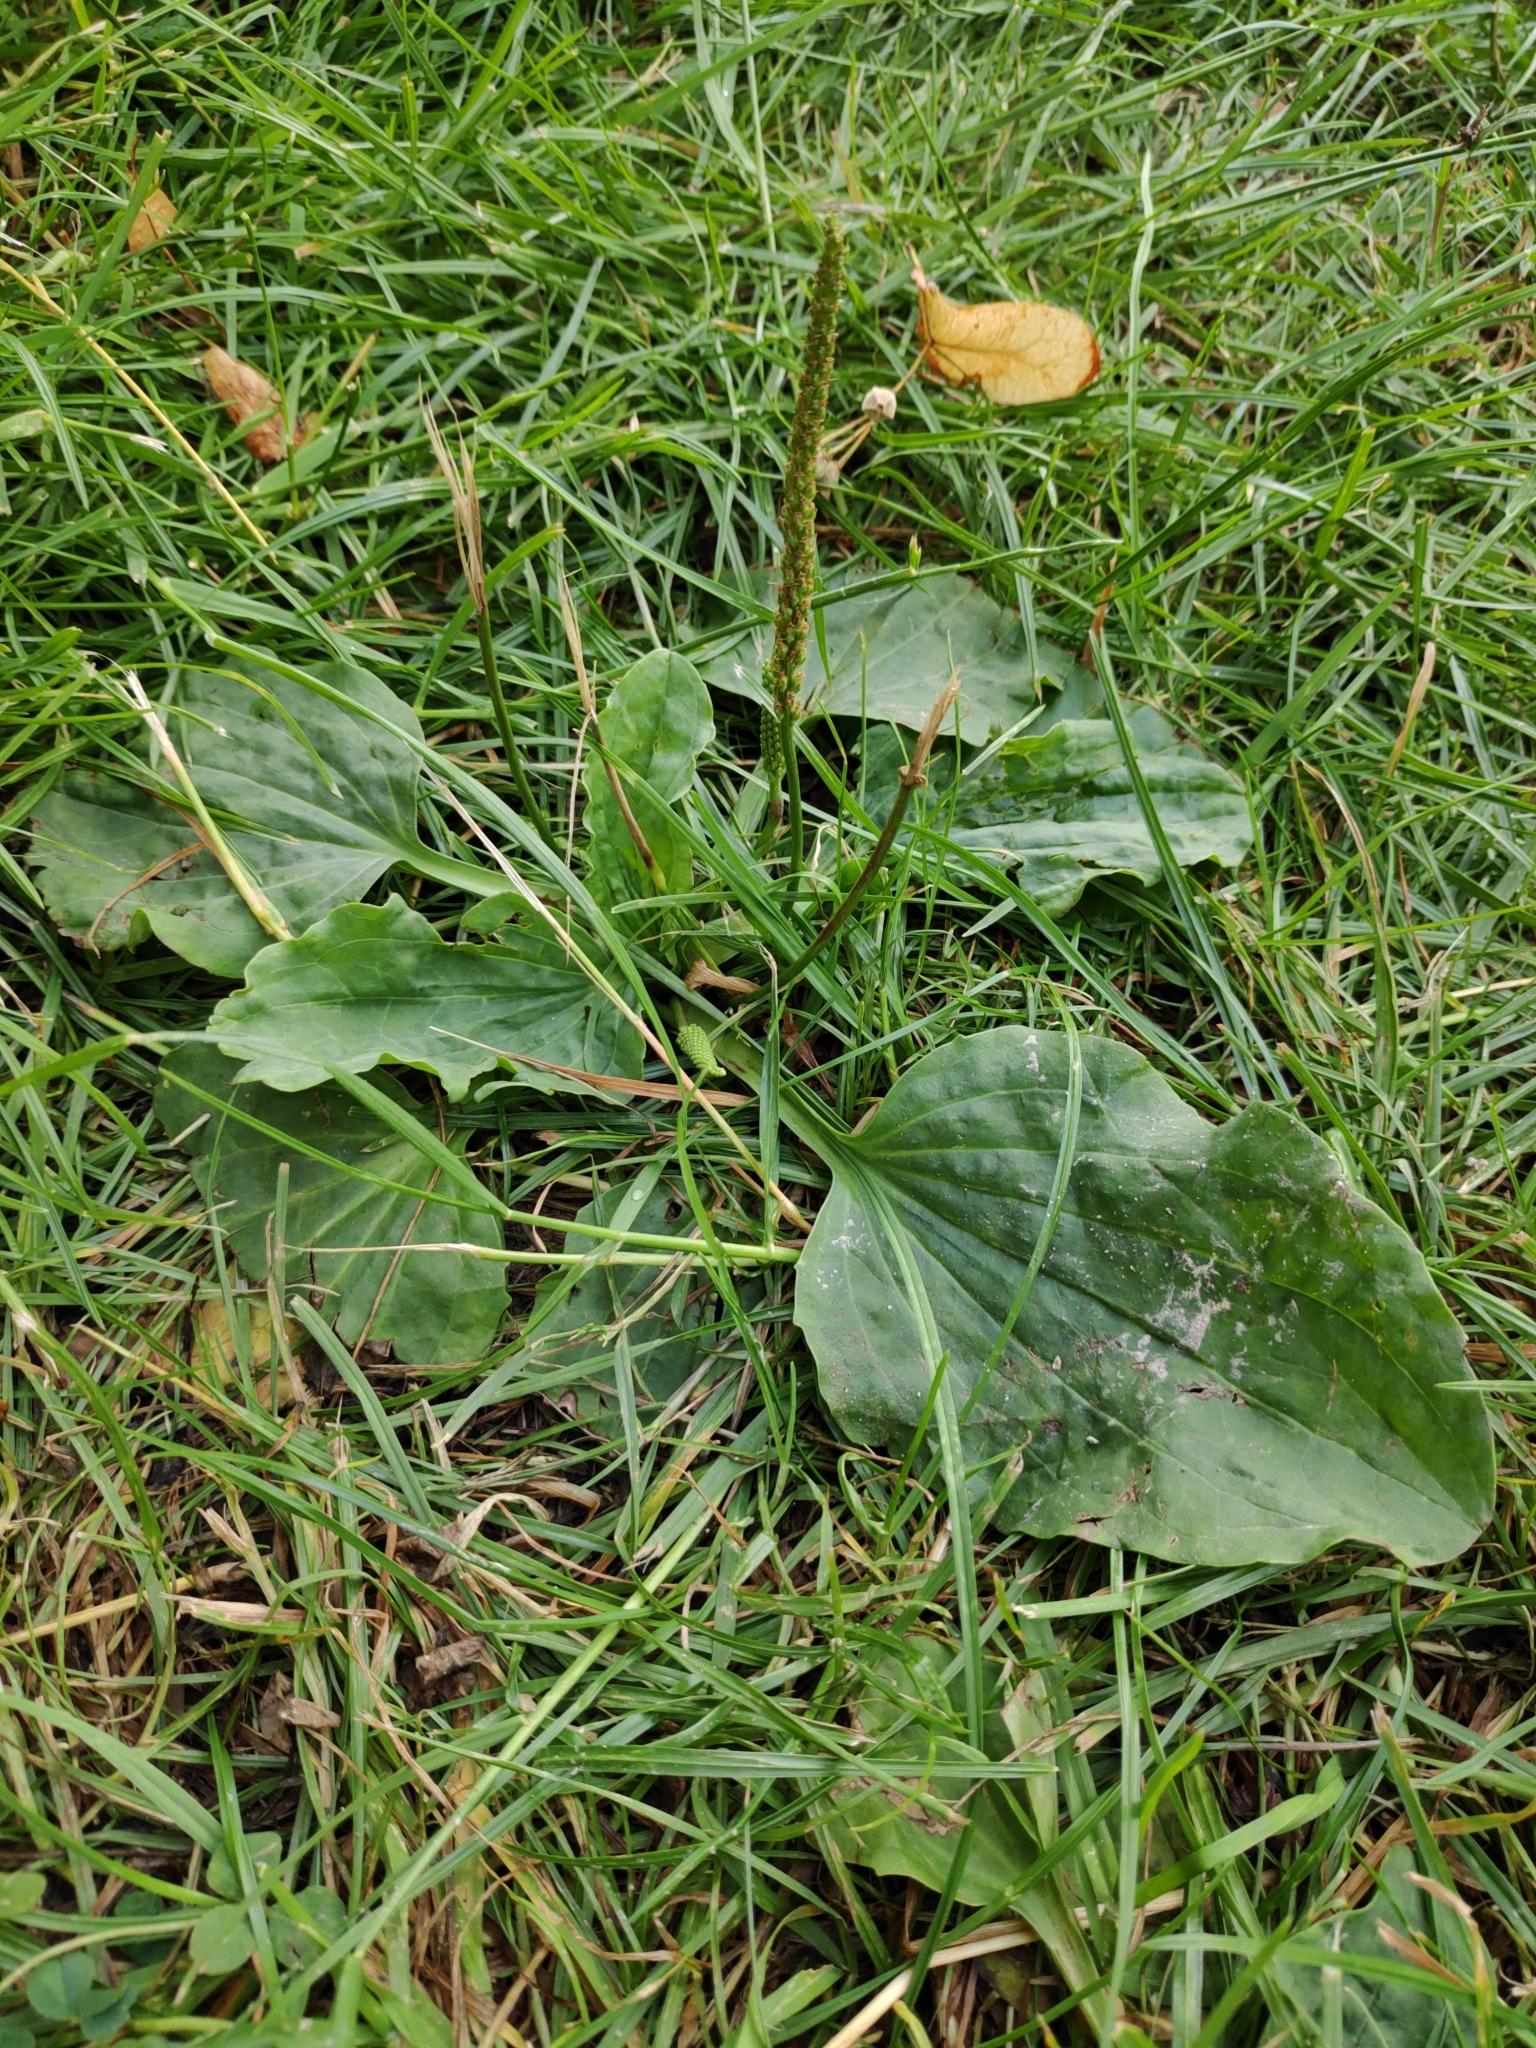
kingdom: Plantae
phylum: Tracheophyta
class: Magnoliopsida
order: Lamiales
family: Plantaginaceae
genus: Plantago
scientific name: Plantago major
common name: Common plantain
